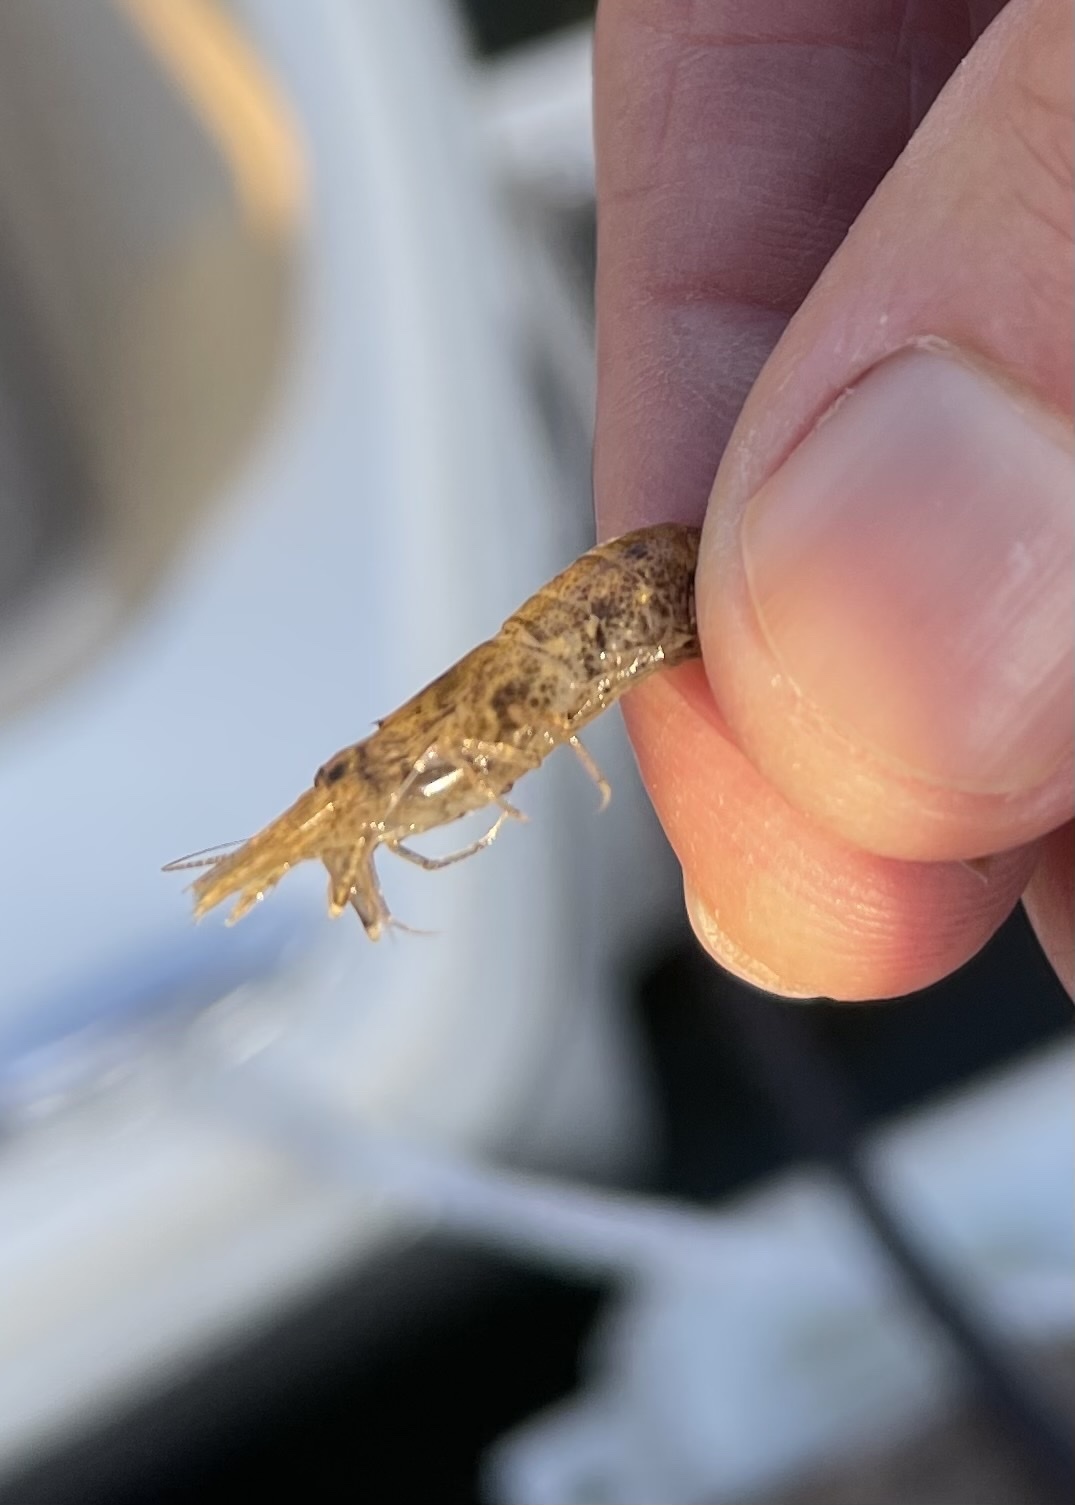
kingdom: Animalia
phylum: Arthropoda
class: Malacostraca
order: Decapoda
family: Crangonidae
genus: Crangon
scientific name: Crangon septemspinosa
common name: Bail shrimp
